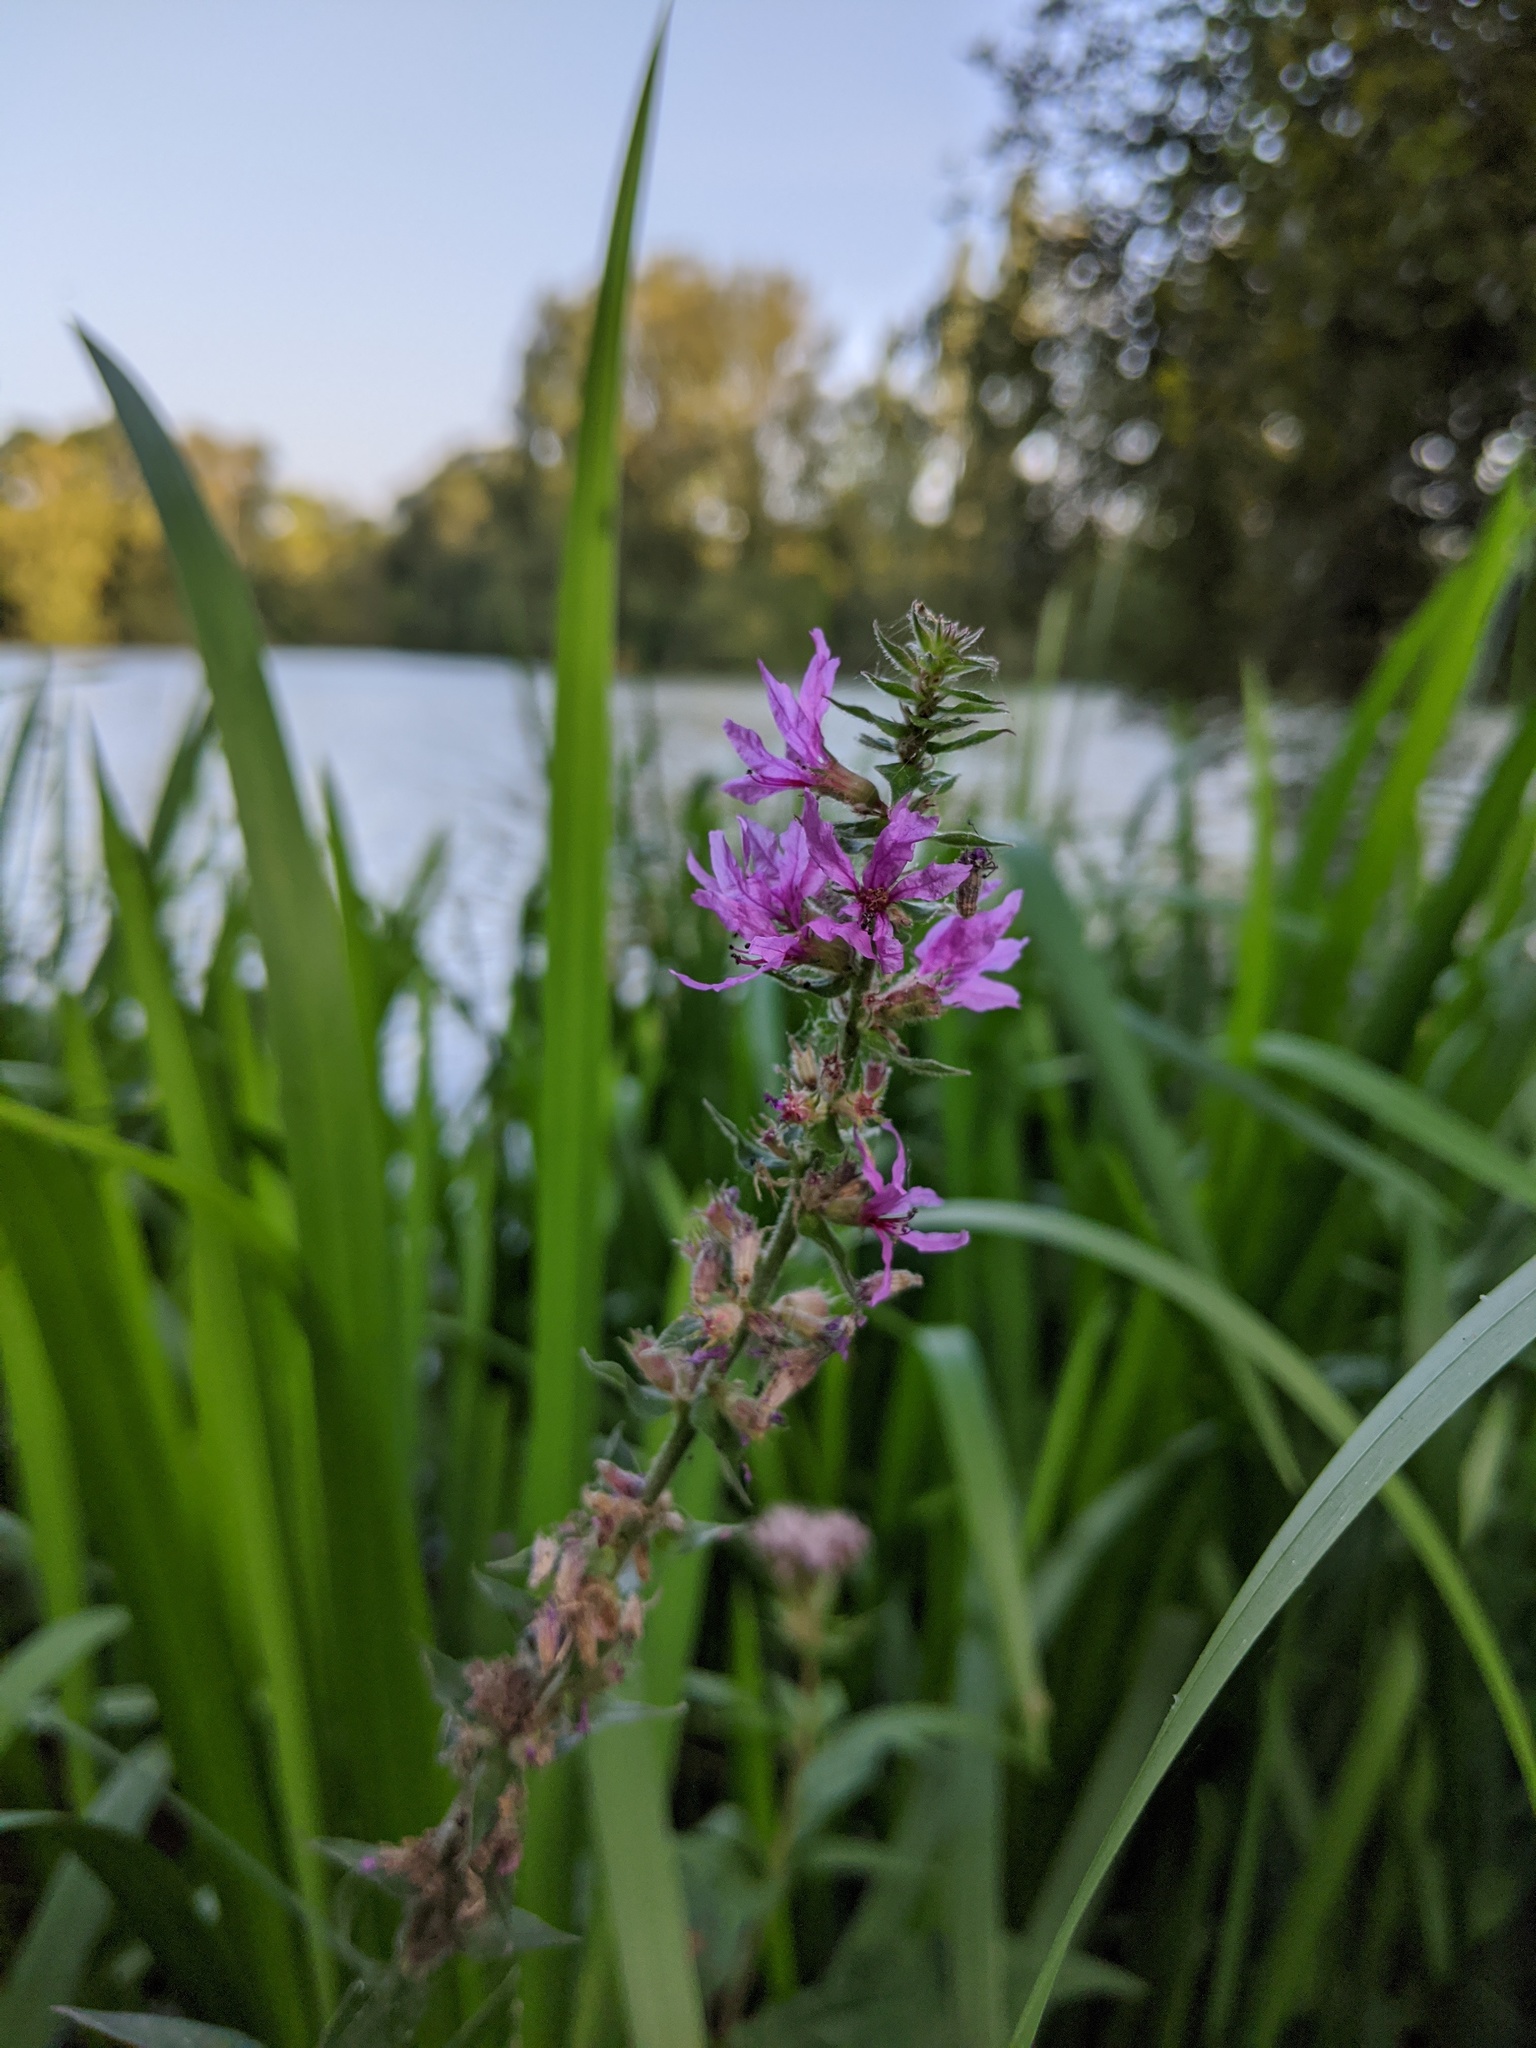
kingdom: Plantae
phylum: Tracheophyta
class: Magnoliopsida
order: Myrtales
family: Lythraceae
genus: Lythrum
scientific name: Lythrum salicaria
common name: Purple loosestrife
